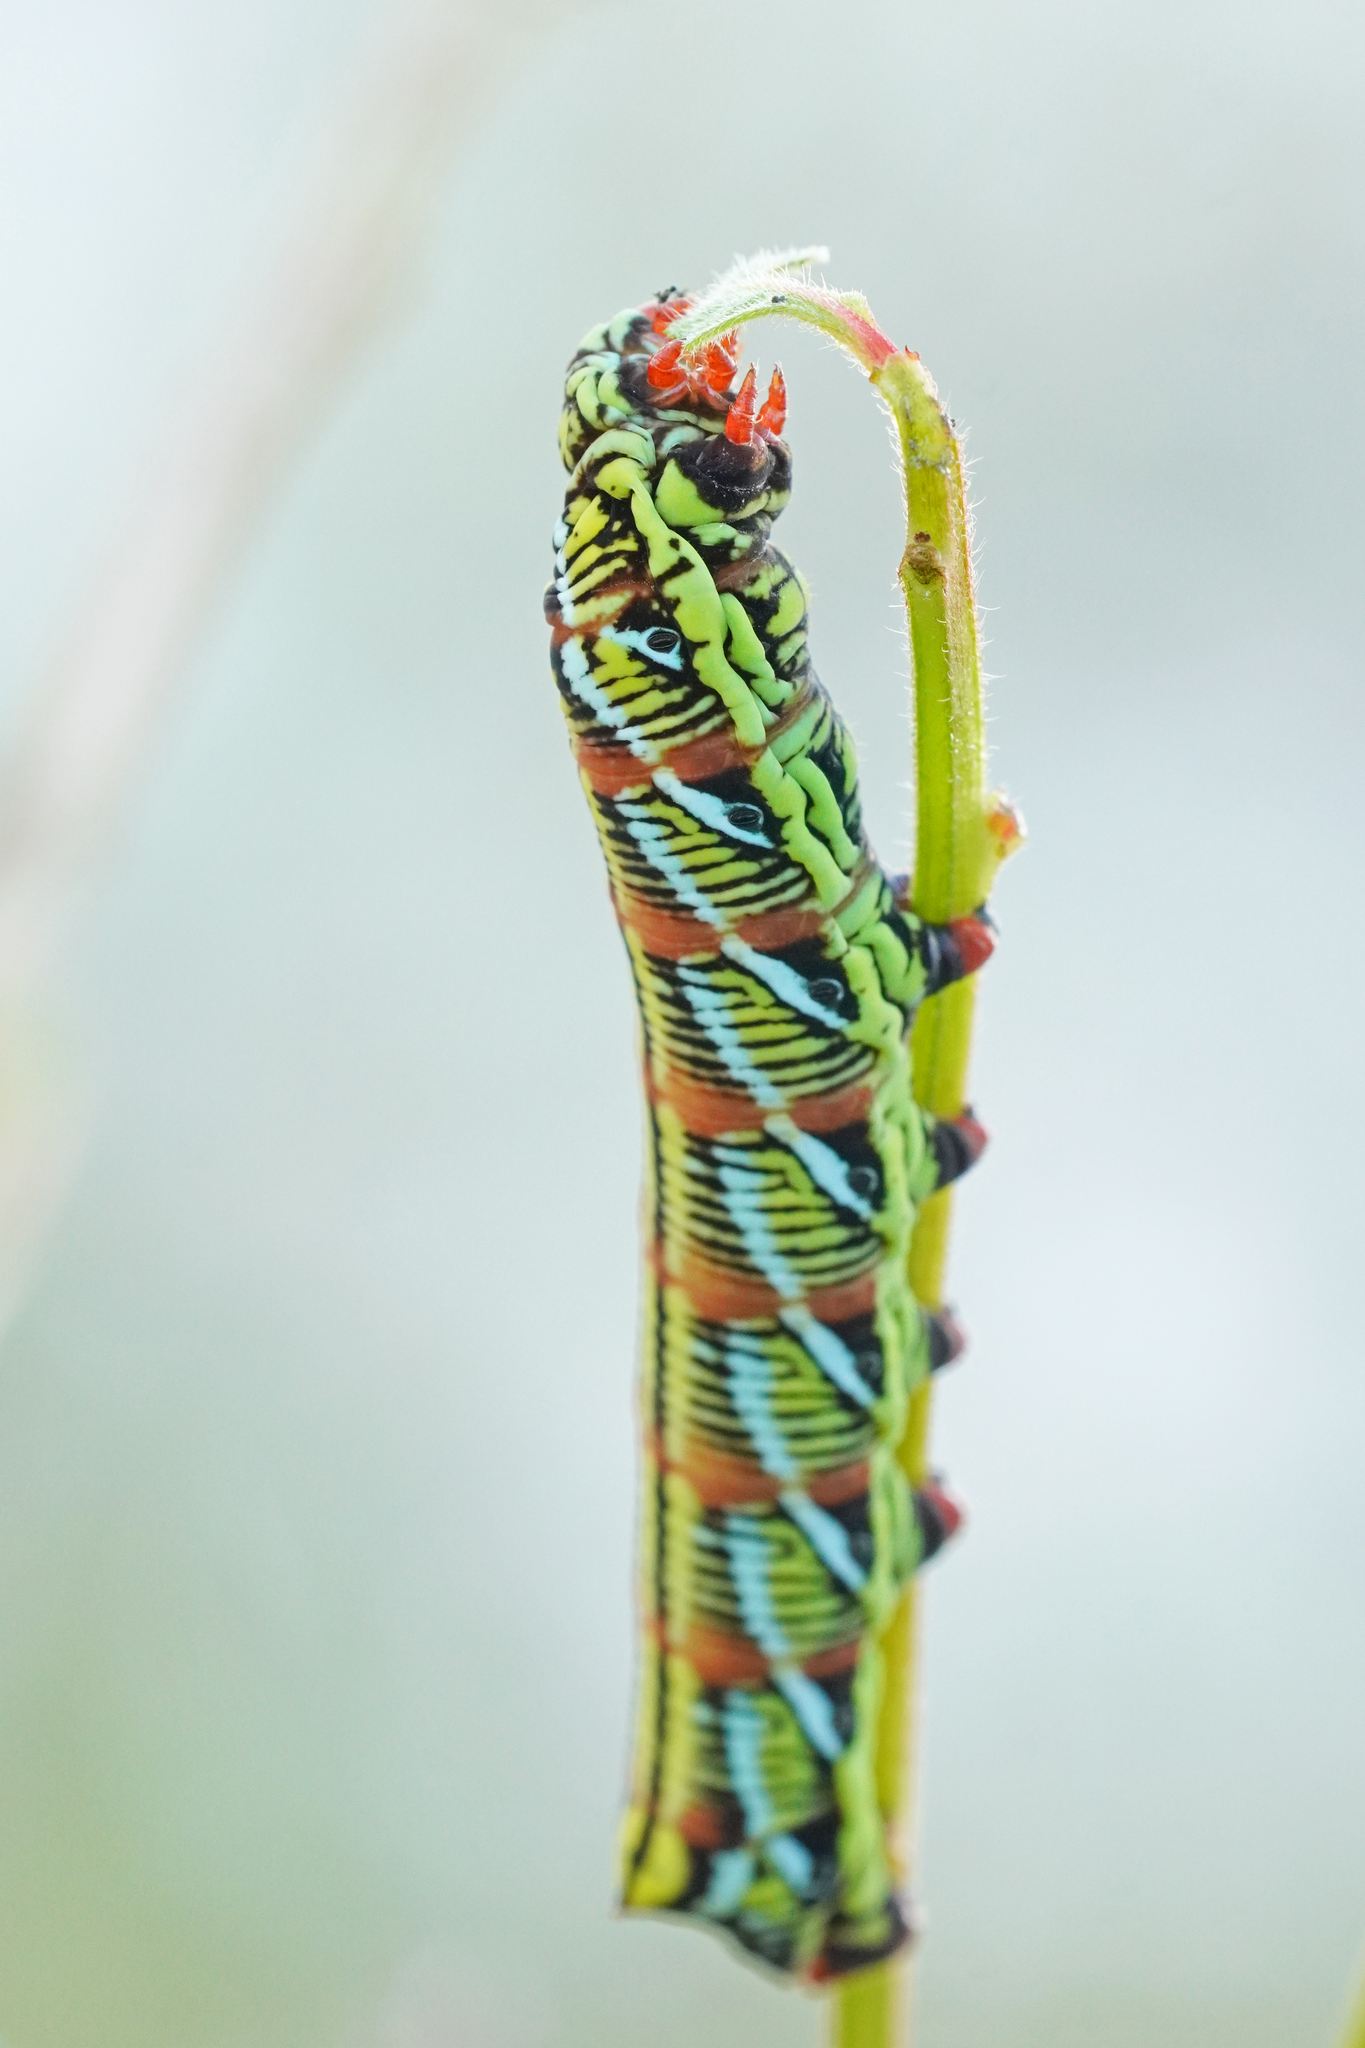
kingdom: Animalia
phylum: Arthropoda
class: Insecta
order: Lepidoptera
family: Sphingidae
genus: Eumorpha
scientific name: Eumorpha fasciatus
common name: Banded sphinx
